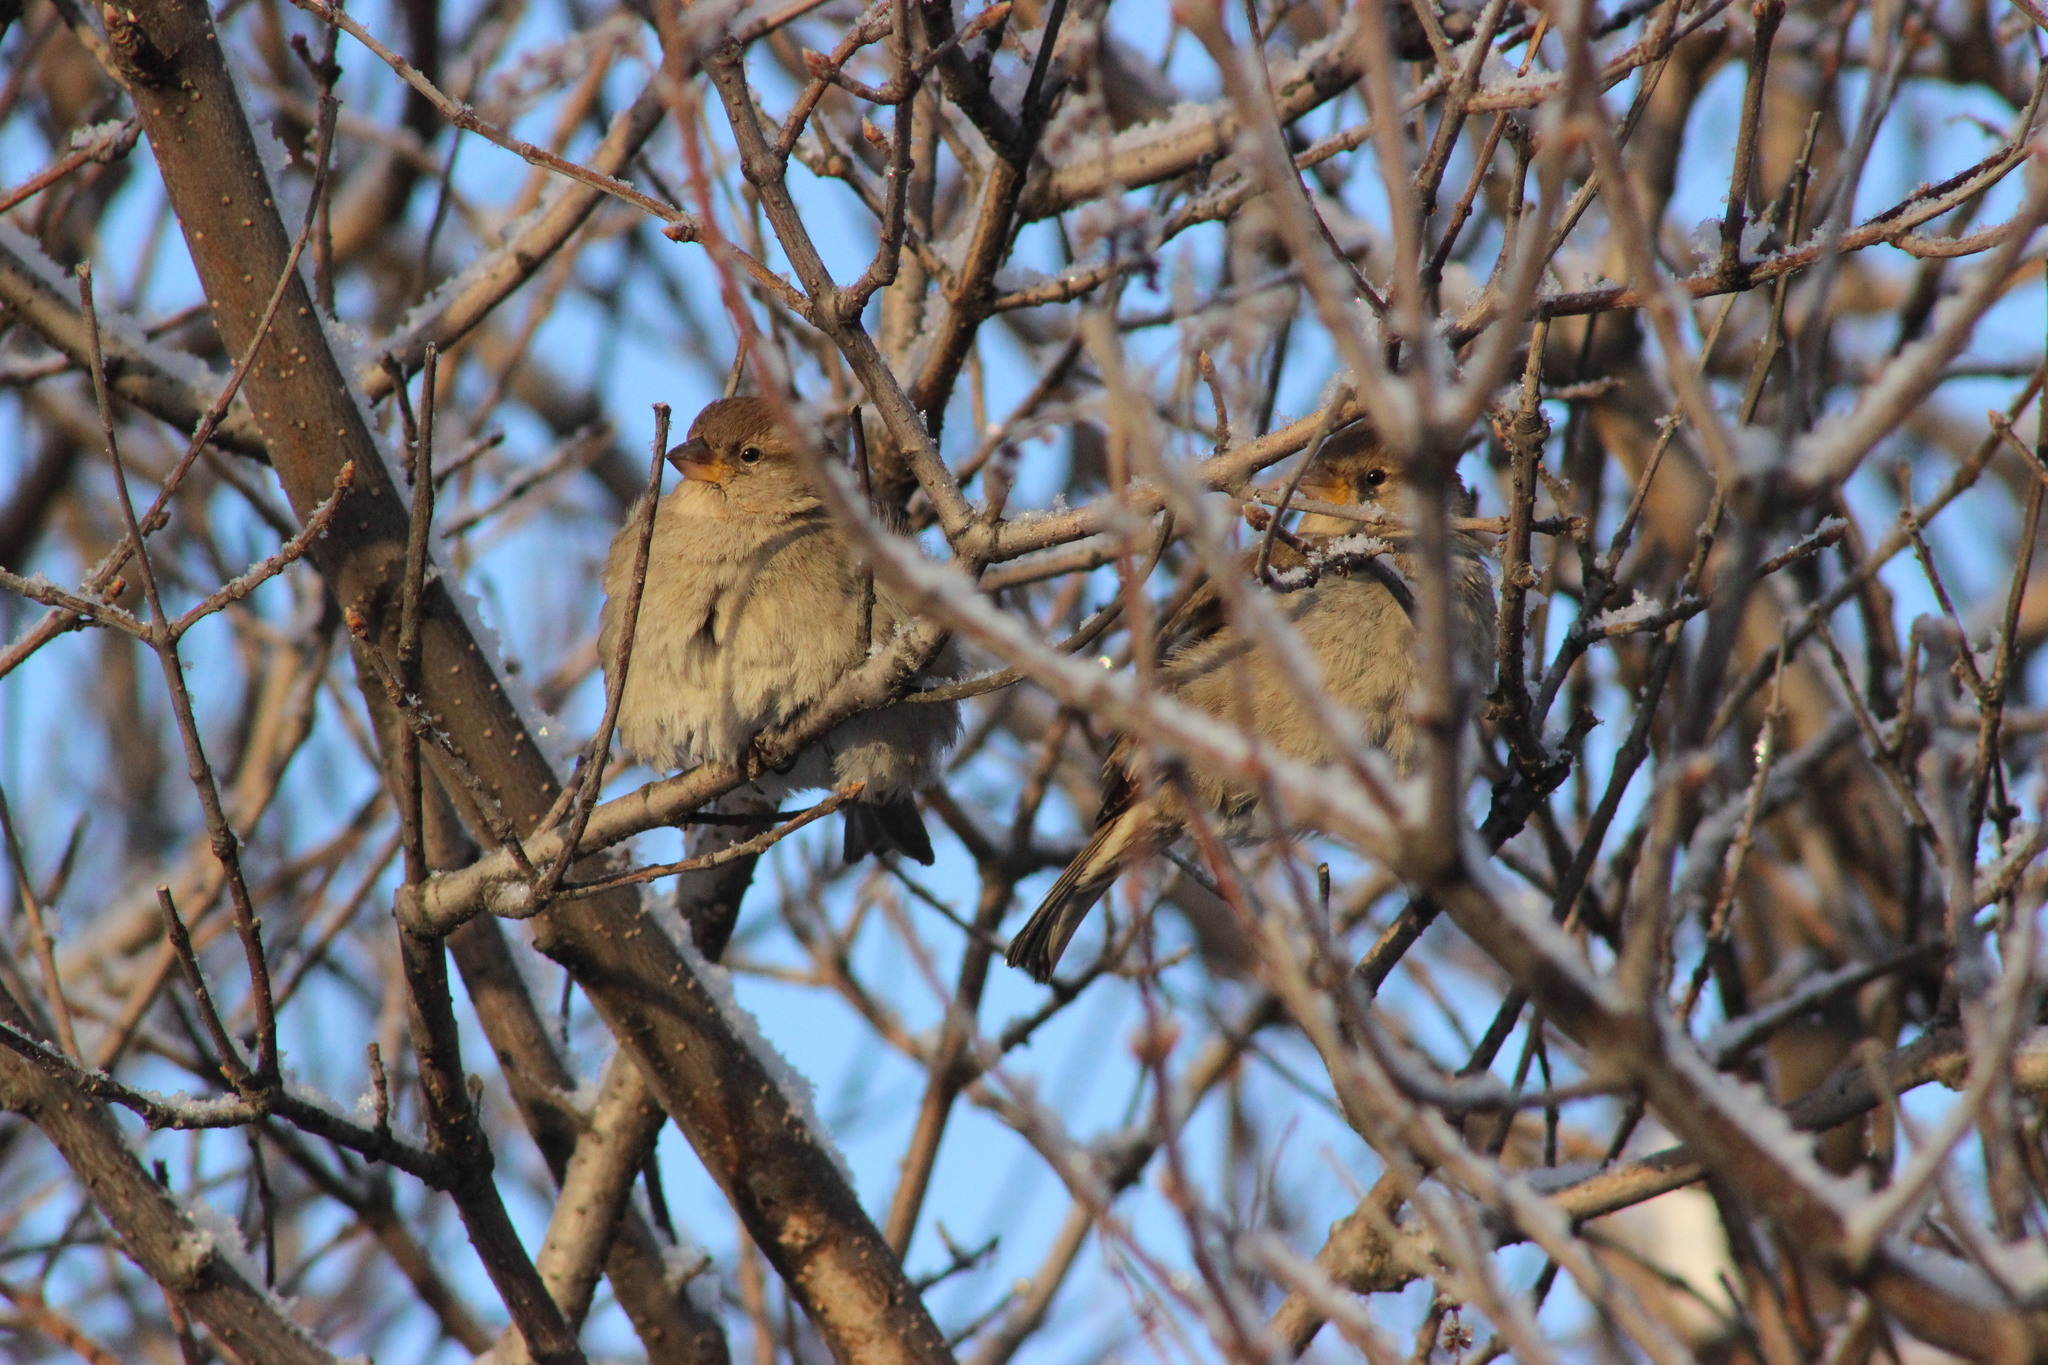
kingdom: Animalia
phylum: Chordata
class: Aves
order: Passeriformes
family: Passeridae
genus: Passer
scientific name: Passer domesticus
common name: House sparrow
